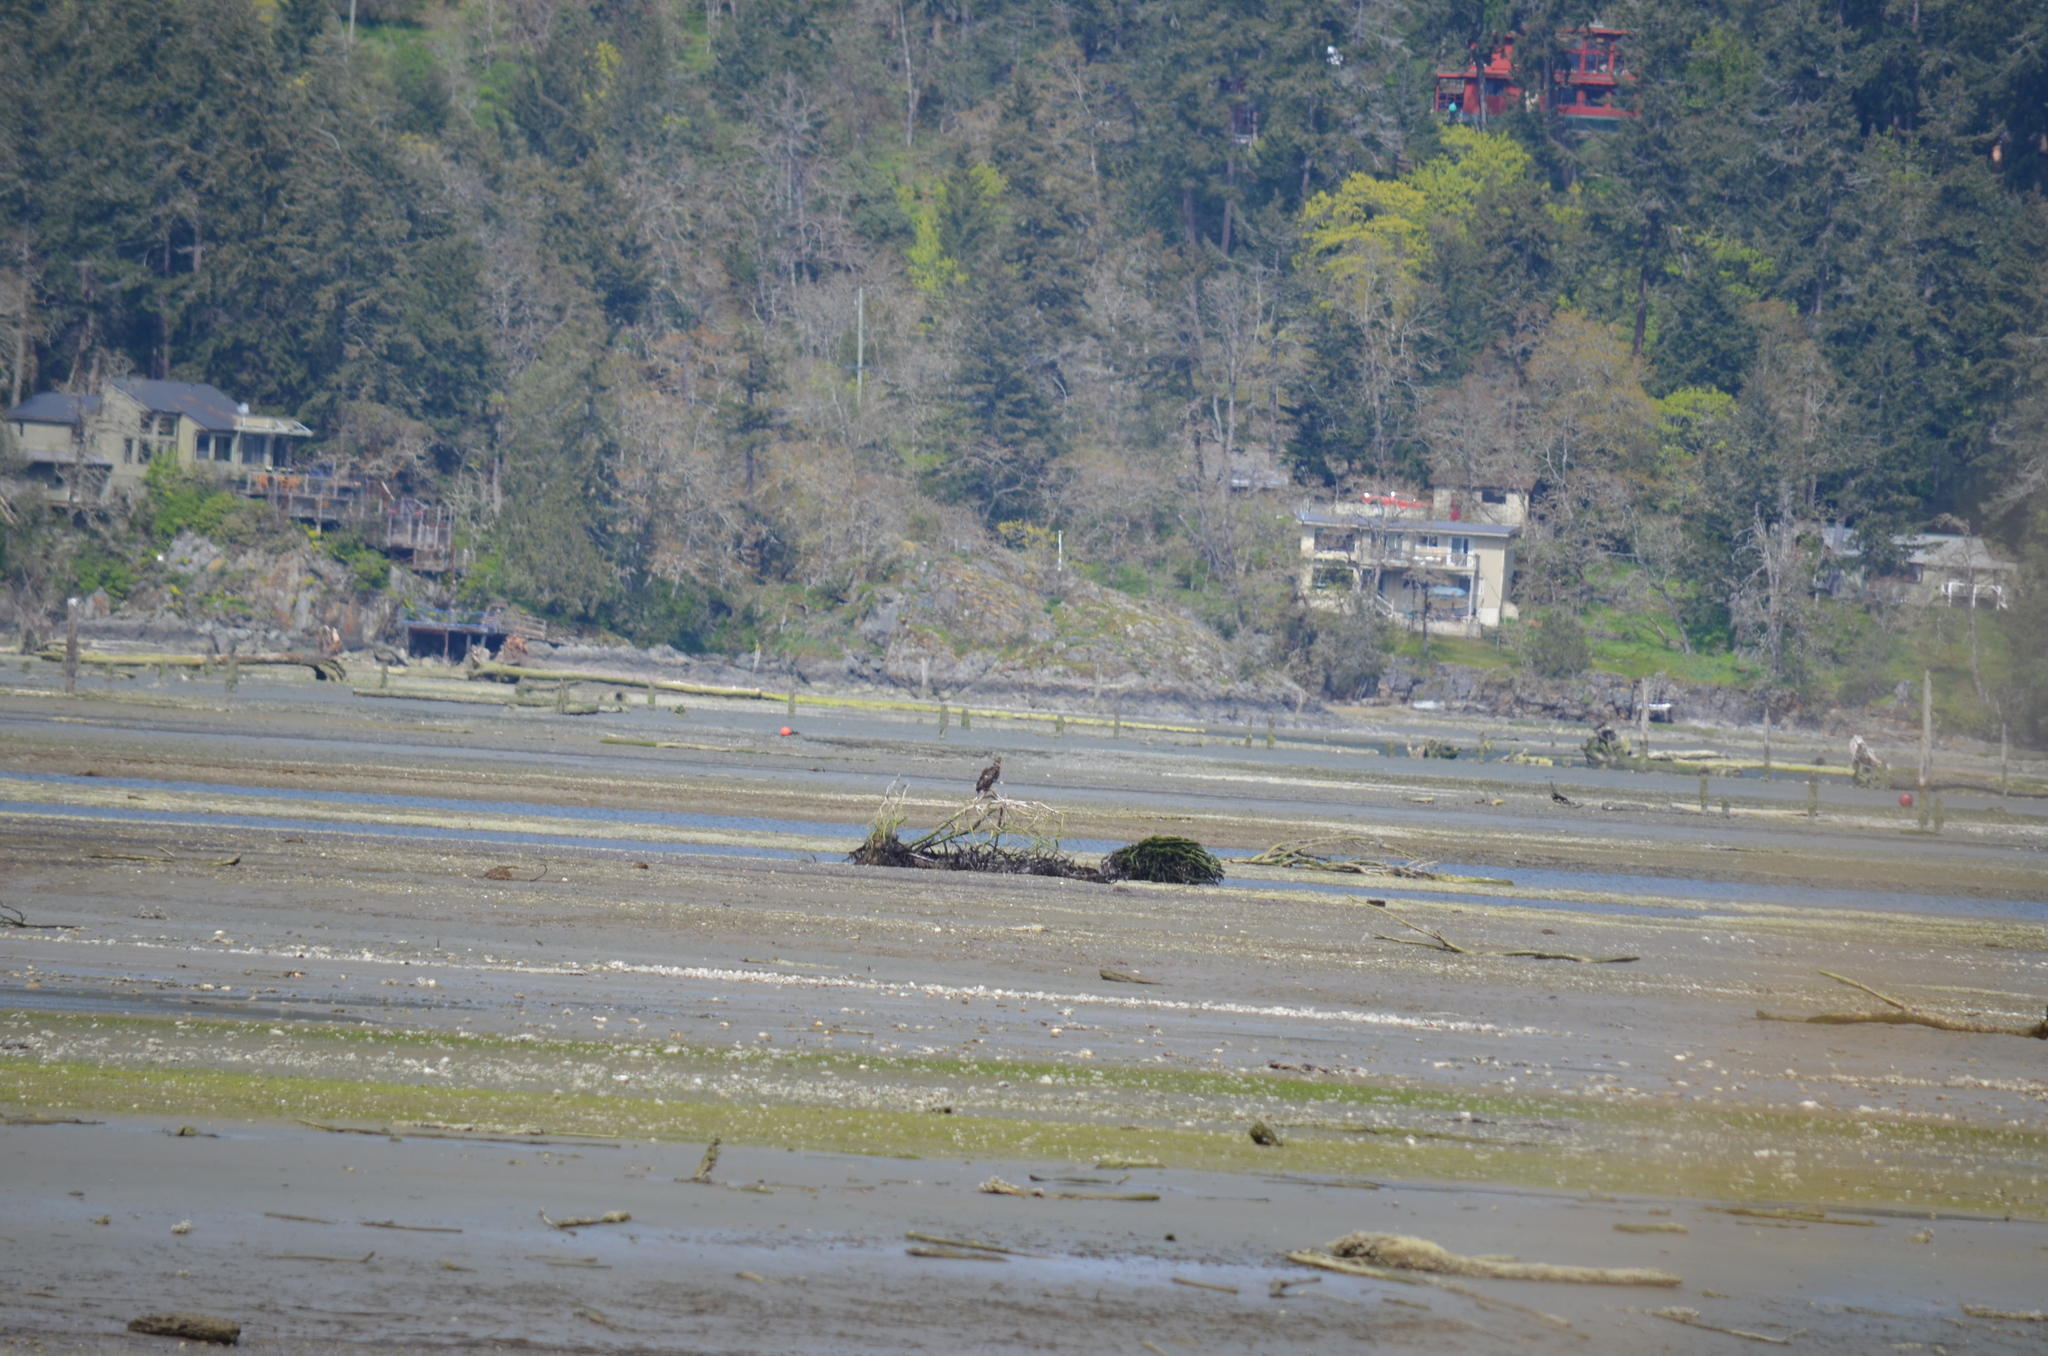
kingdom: Animalia
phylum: Chordata
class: Aves
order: Accipitriformes
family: Accipitridae
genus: Haliaeetus
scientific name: Haliaeetus leucocephalus
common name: Bald eagle
